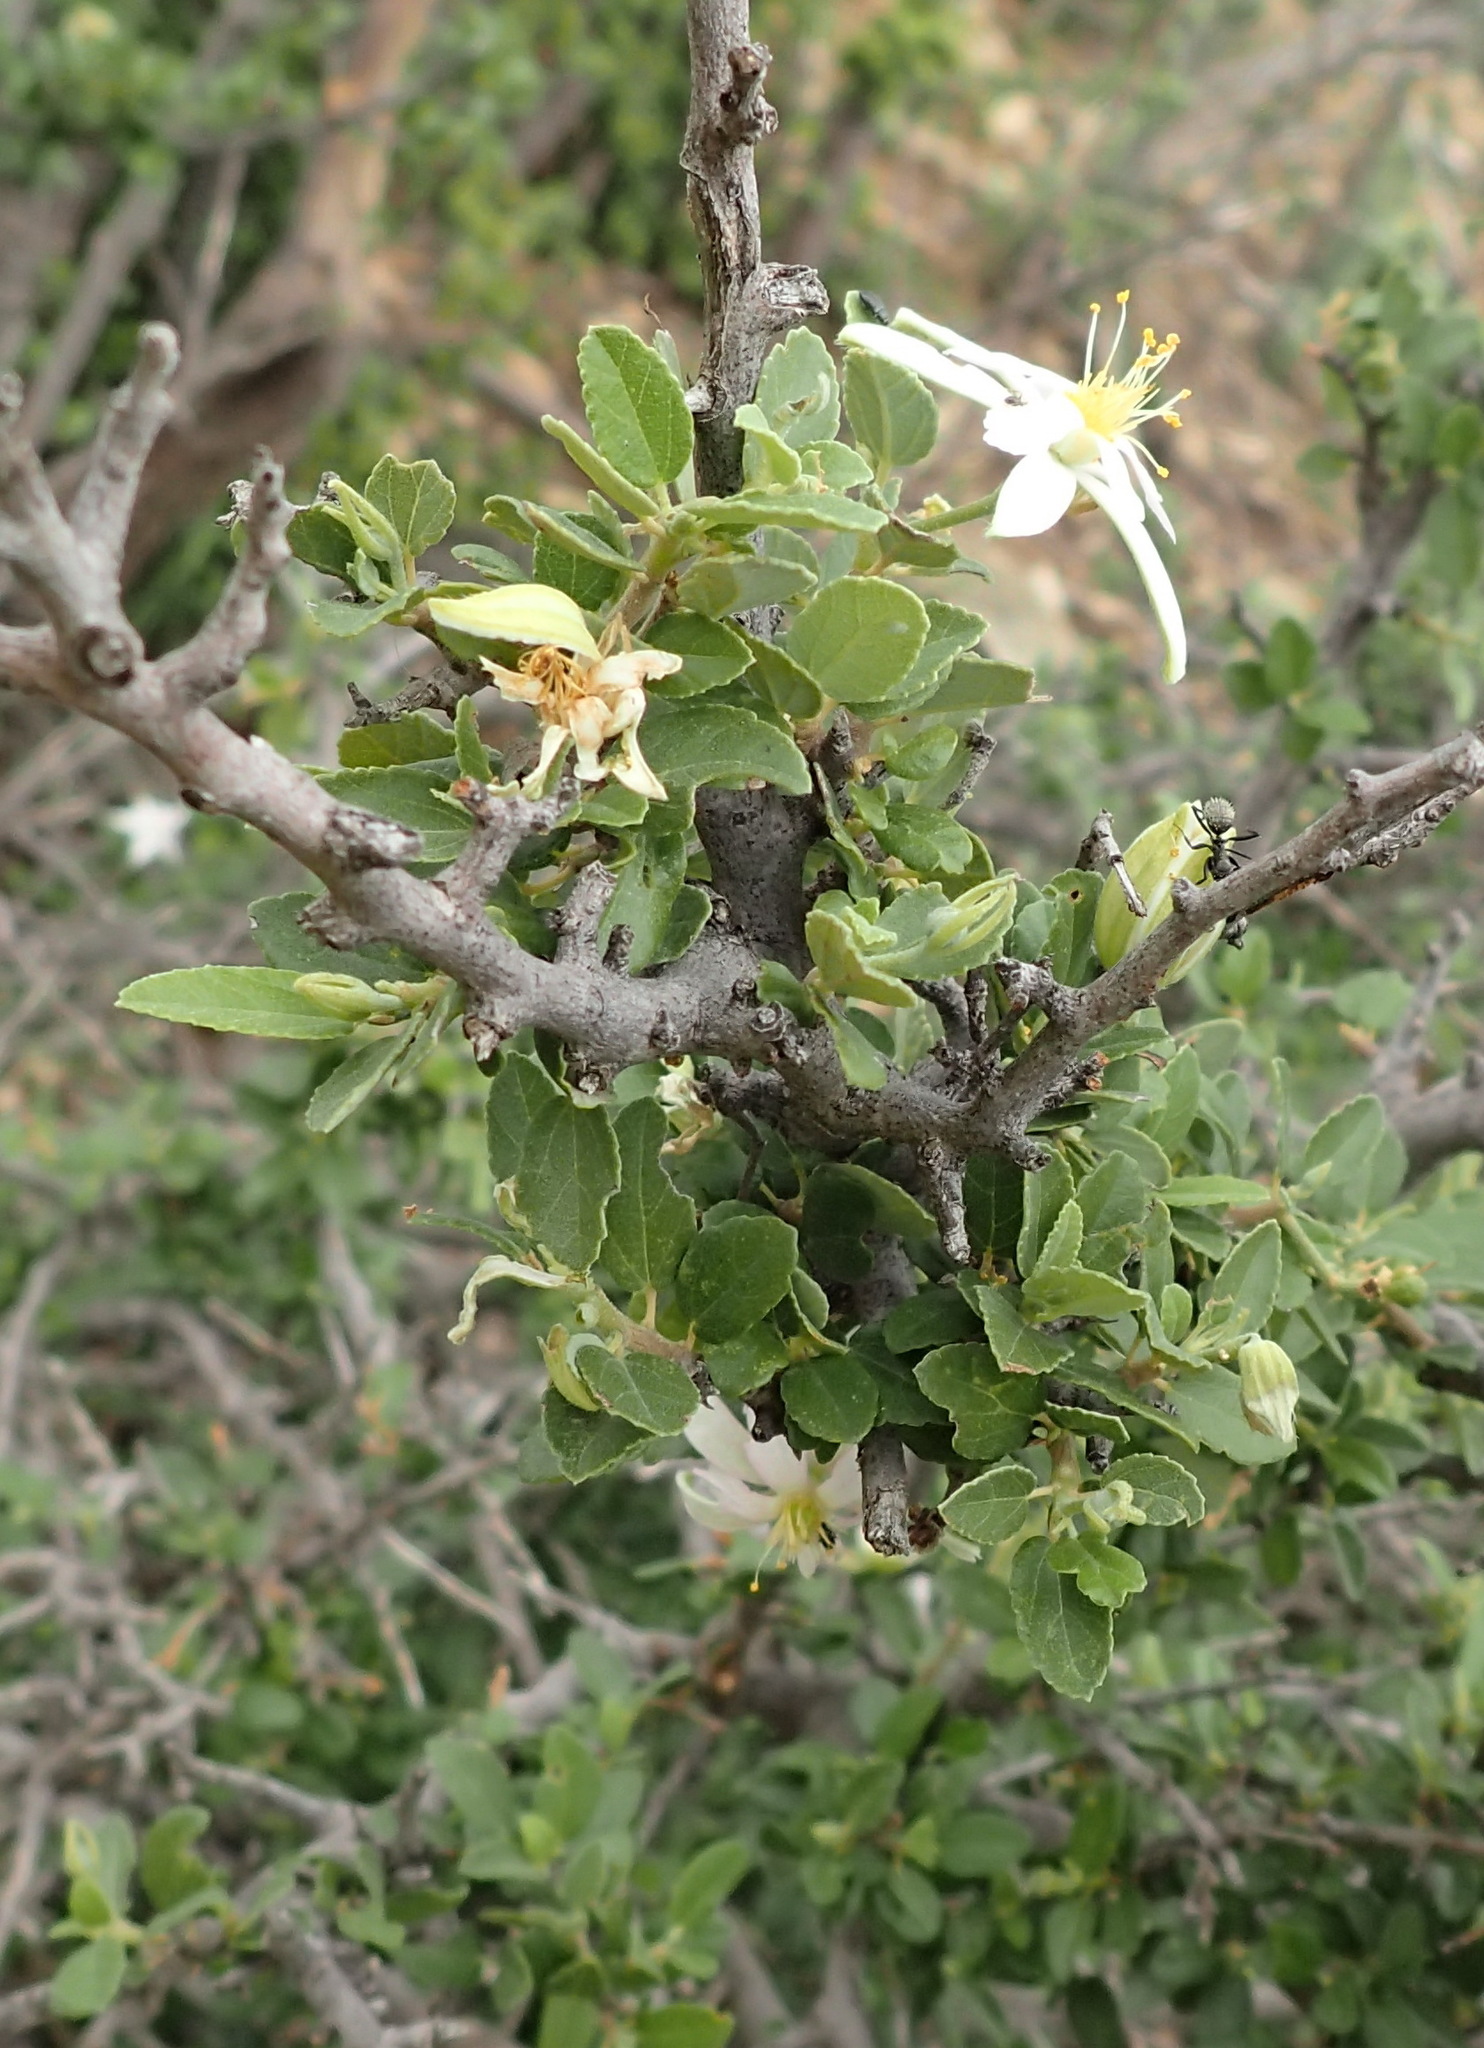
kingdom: Plantae
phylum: Tracheophyta
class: Magnoliopsida
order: Malvales
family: Malvaceae
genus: Grewia
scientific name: Grewia robusta
